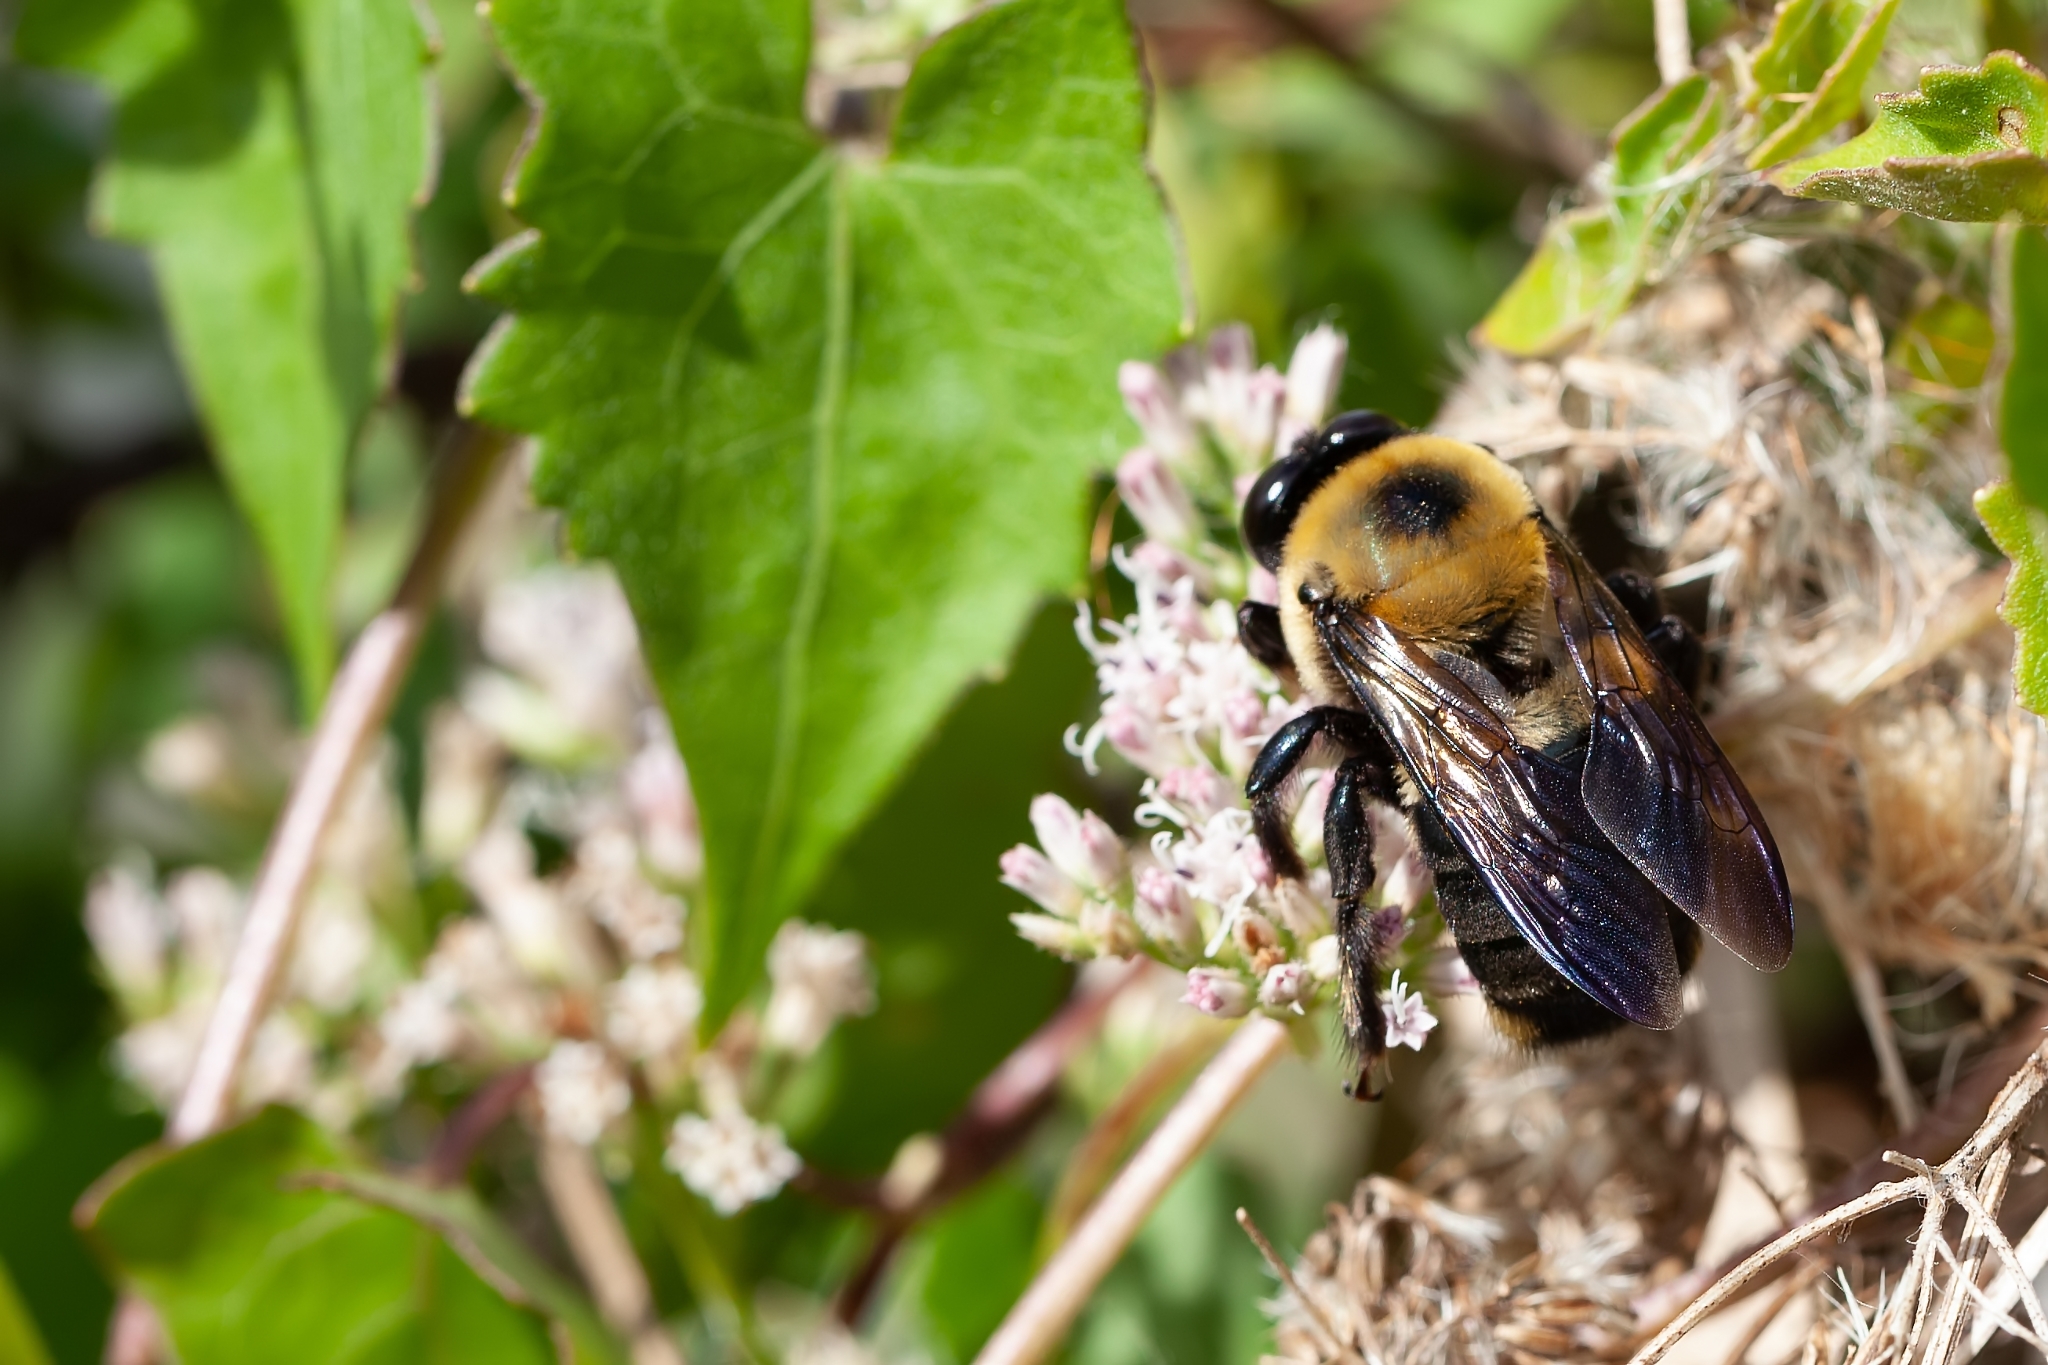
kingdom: Animalia
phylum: Arthropoda
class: Insecta
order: Hymenoptera
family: Apidae
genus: Xylocopa
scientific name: Xylocopa virginica
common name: Carpenter bee
